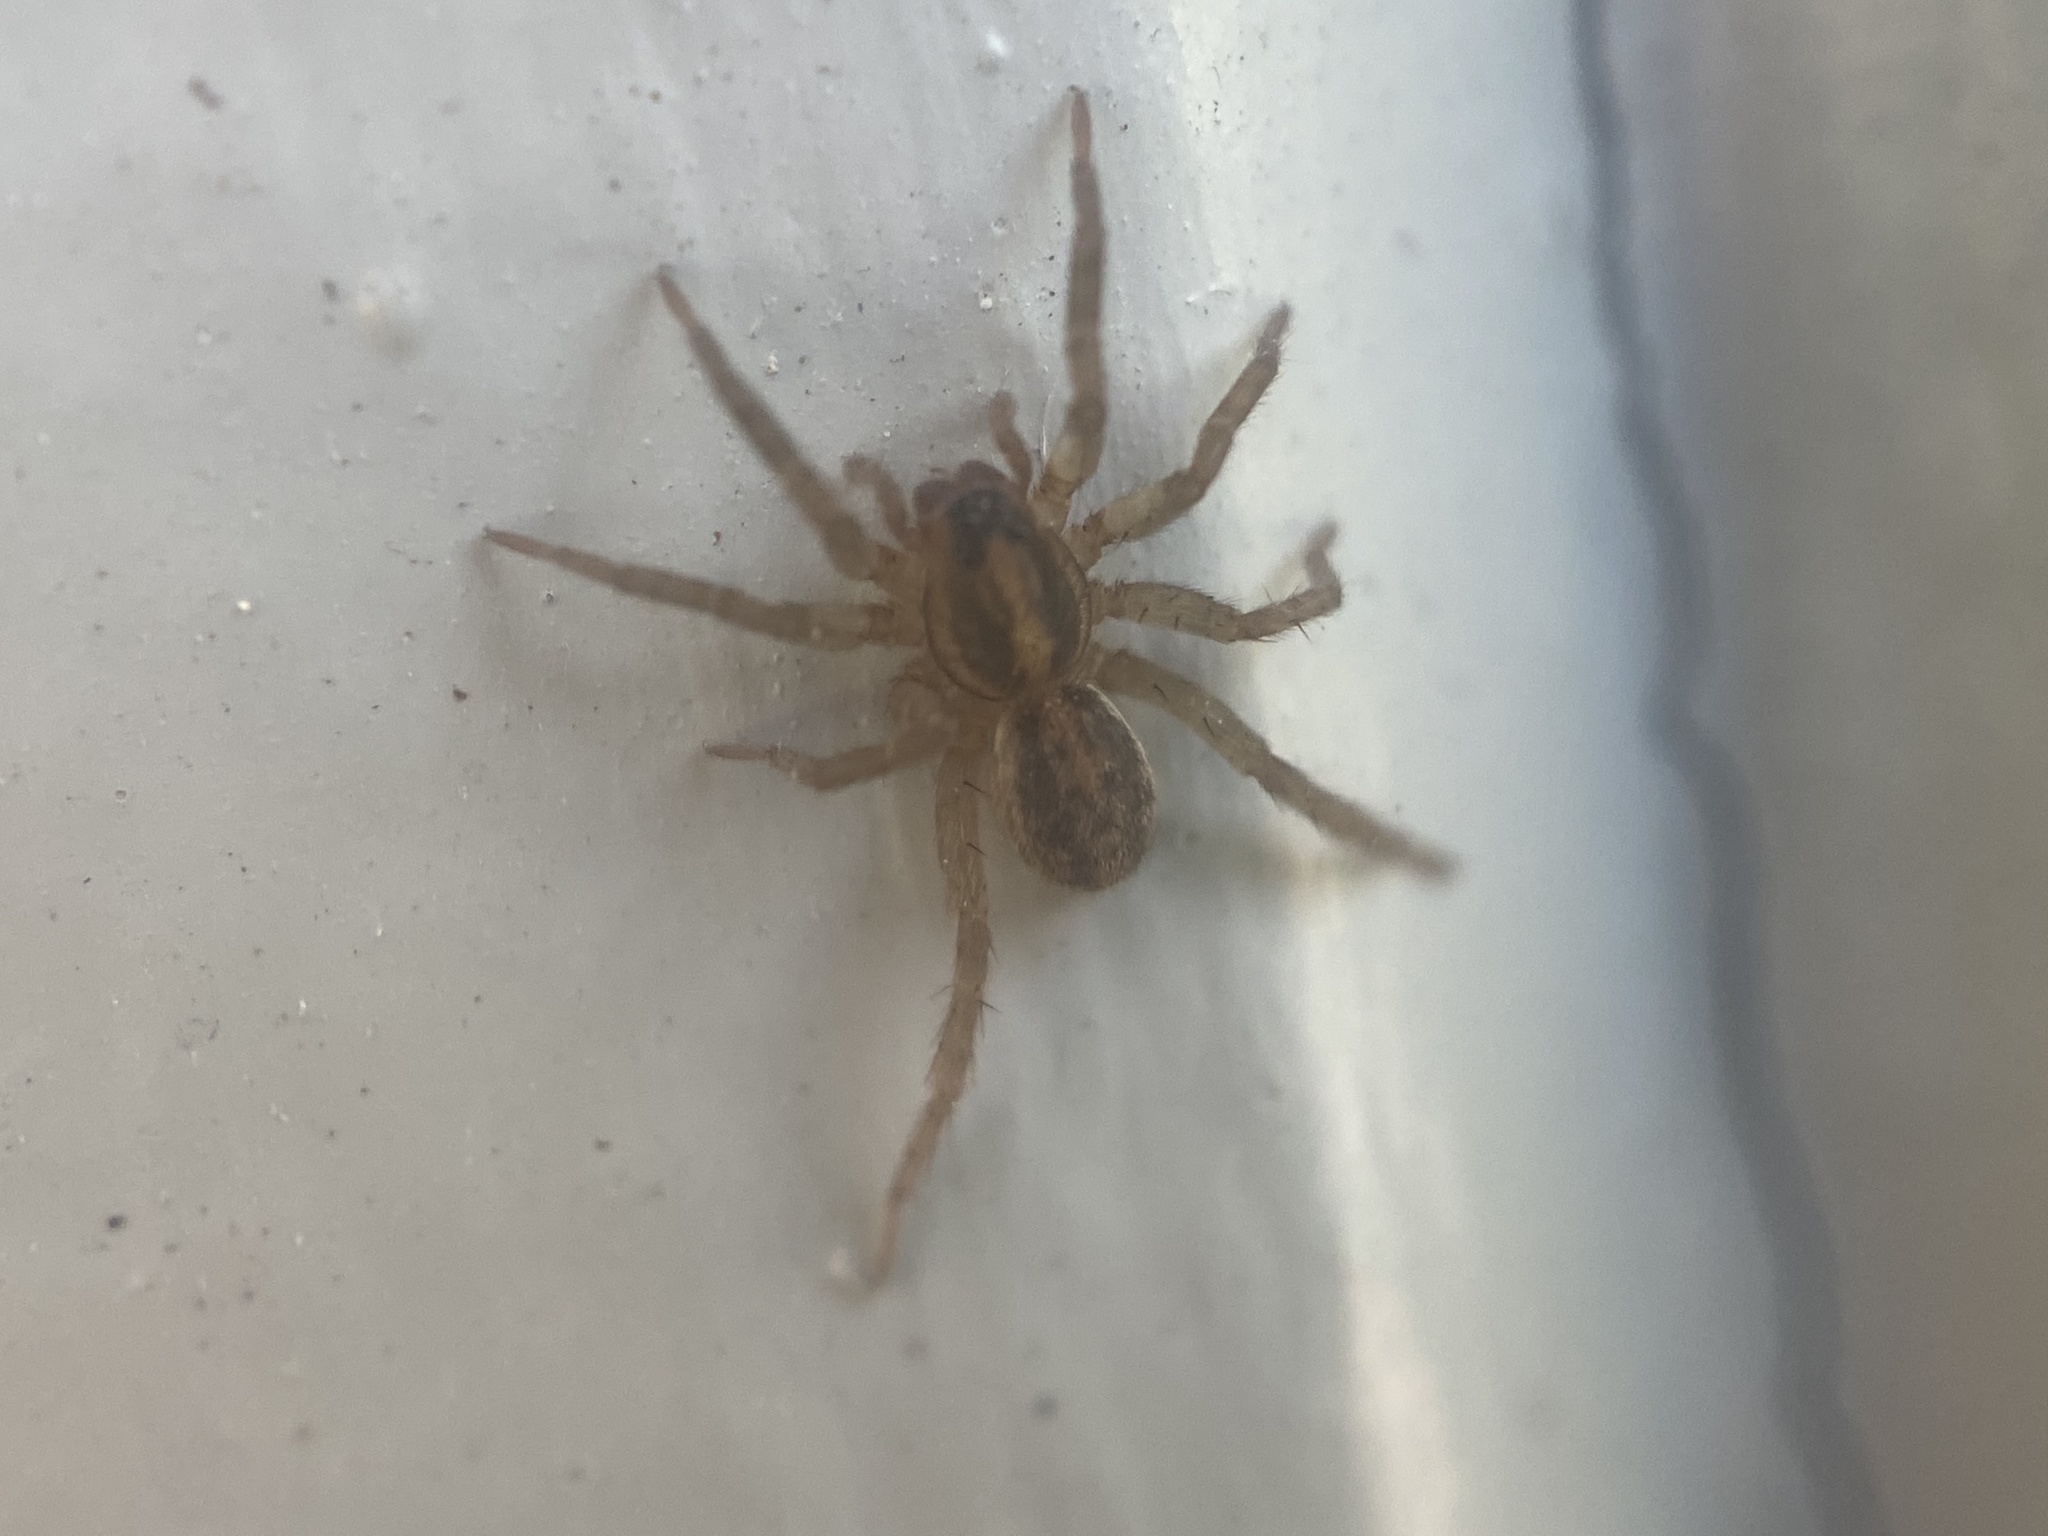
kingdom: Animalia
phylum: Arthropoda
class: Arachnida
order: Araneae
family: Lycosidae
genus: Trochosa
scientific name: Trochosa ruricola
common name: Spider
